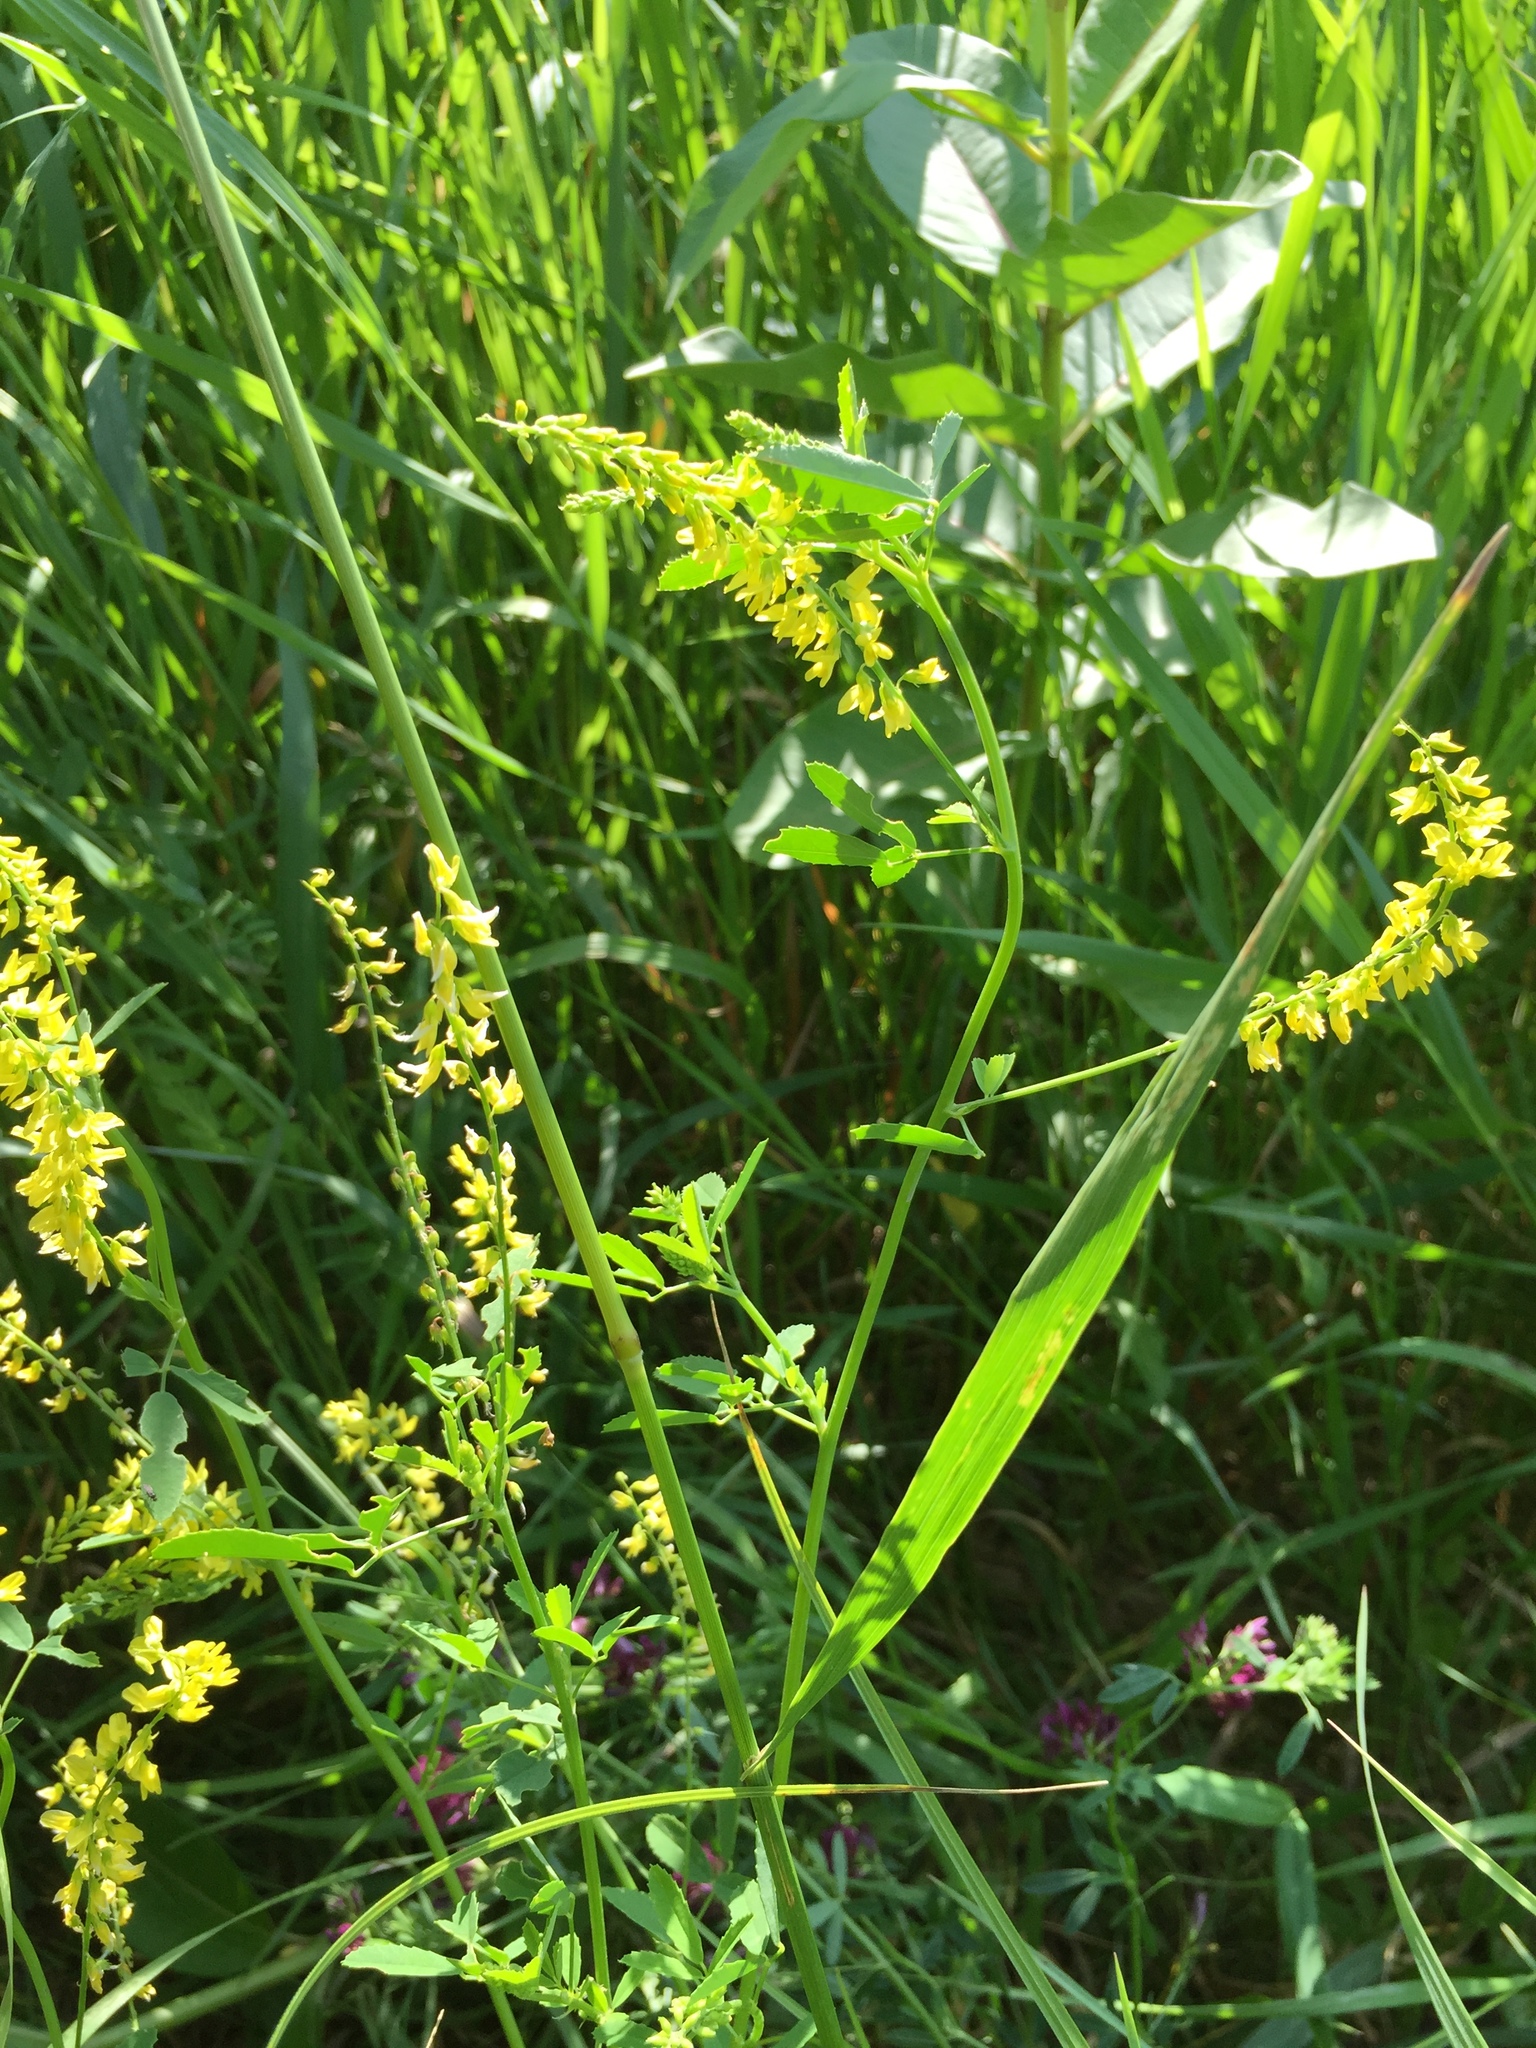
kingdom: Plantae
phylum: Tracheophyta
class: Magnoliopsida
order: Fabales
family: Fabaceae
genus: Melilotus
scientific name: Melilotus officinalis
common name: Sweetclover
